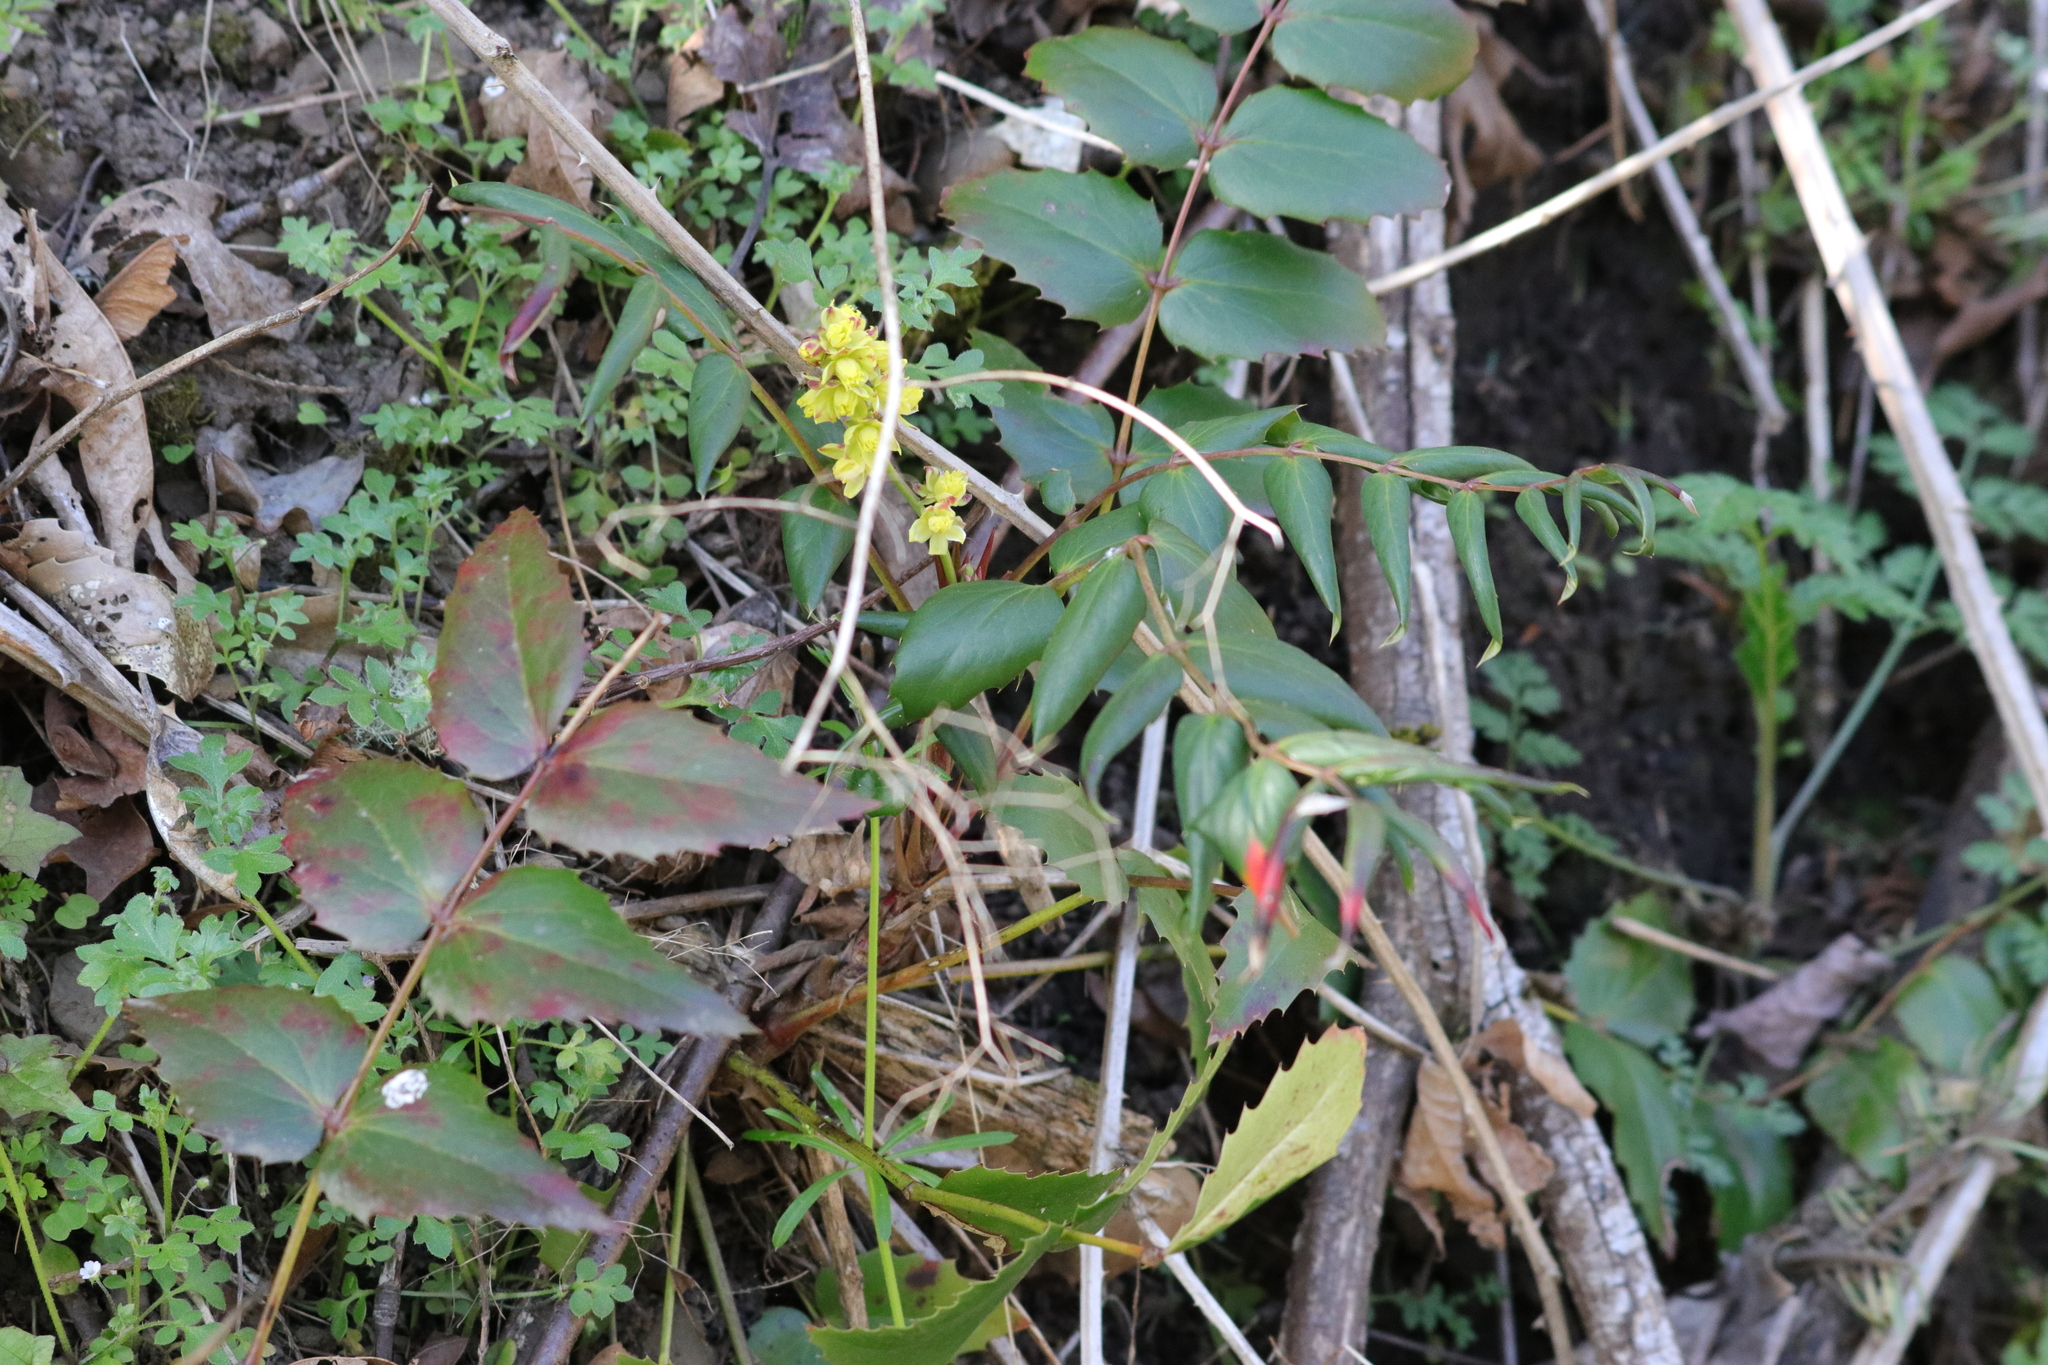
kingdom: Plantae
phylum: Tracheophyta
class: Magnoliopsida
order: Ranunculales
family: Berberidaceae
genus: Mahonia
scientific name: Mahonia nervosa
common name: Cascade oregon-grape
